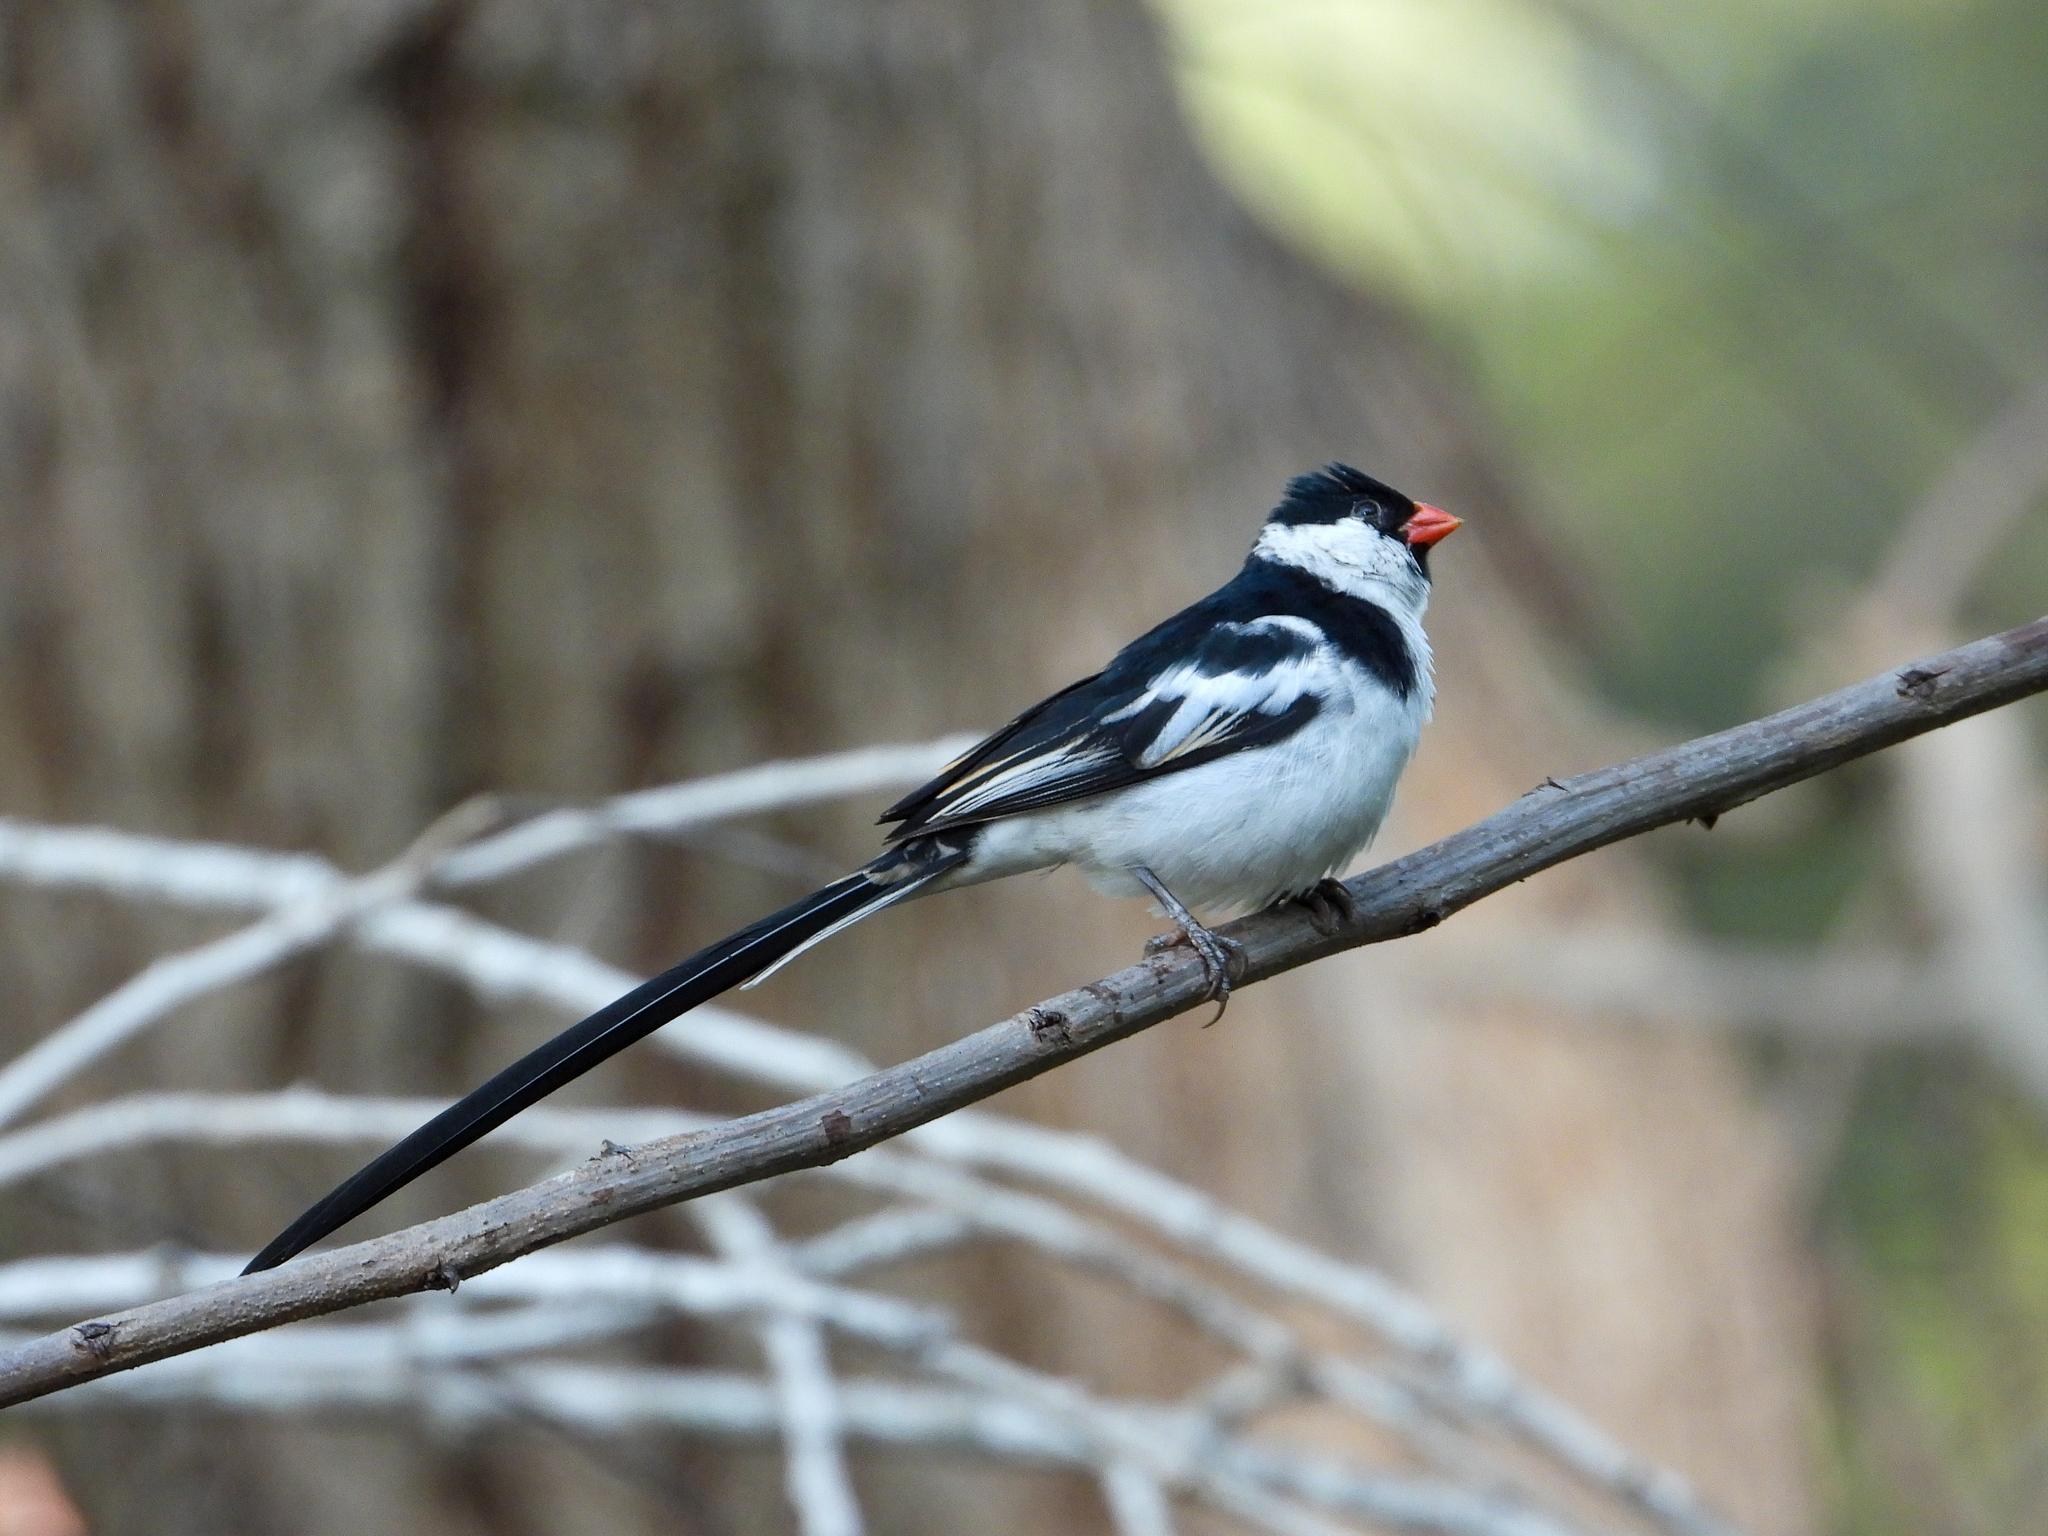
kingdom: Animalia
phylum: Chordata
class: Aves
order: Passeriformes
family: Viduidae
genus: Vidua
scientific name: Vidua macroura
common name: Pin-tailed whydah
